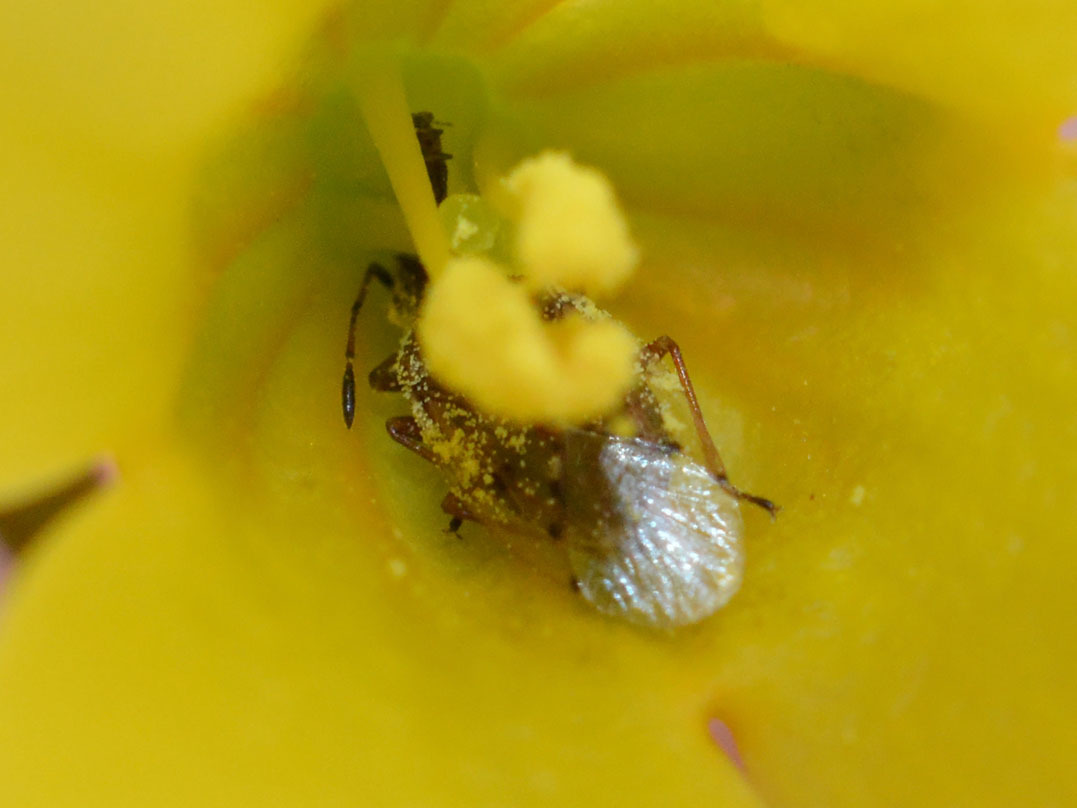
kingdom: Animalia
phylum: Arthropoda
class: Insecta
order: Hemiptera
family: Lygaeidae
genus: Kleidocerys
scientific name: Kleidocerys resedae
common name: Birch catkin bug
